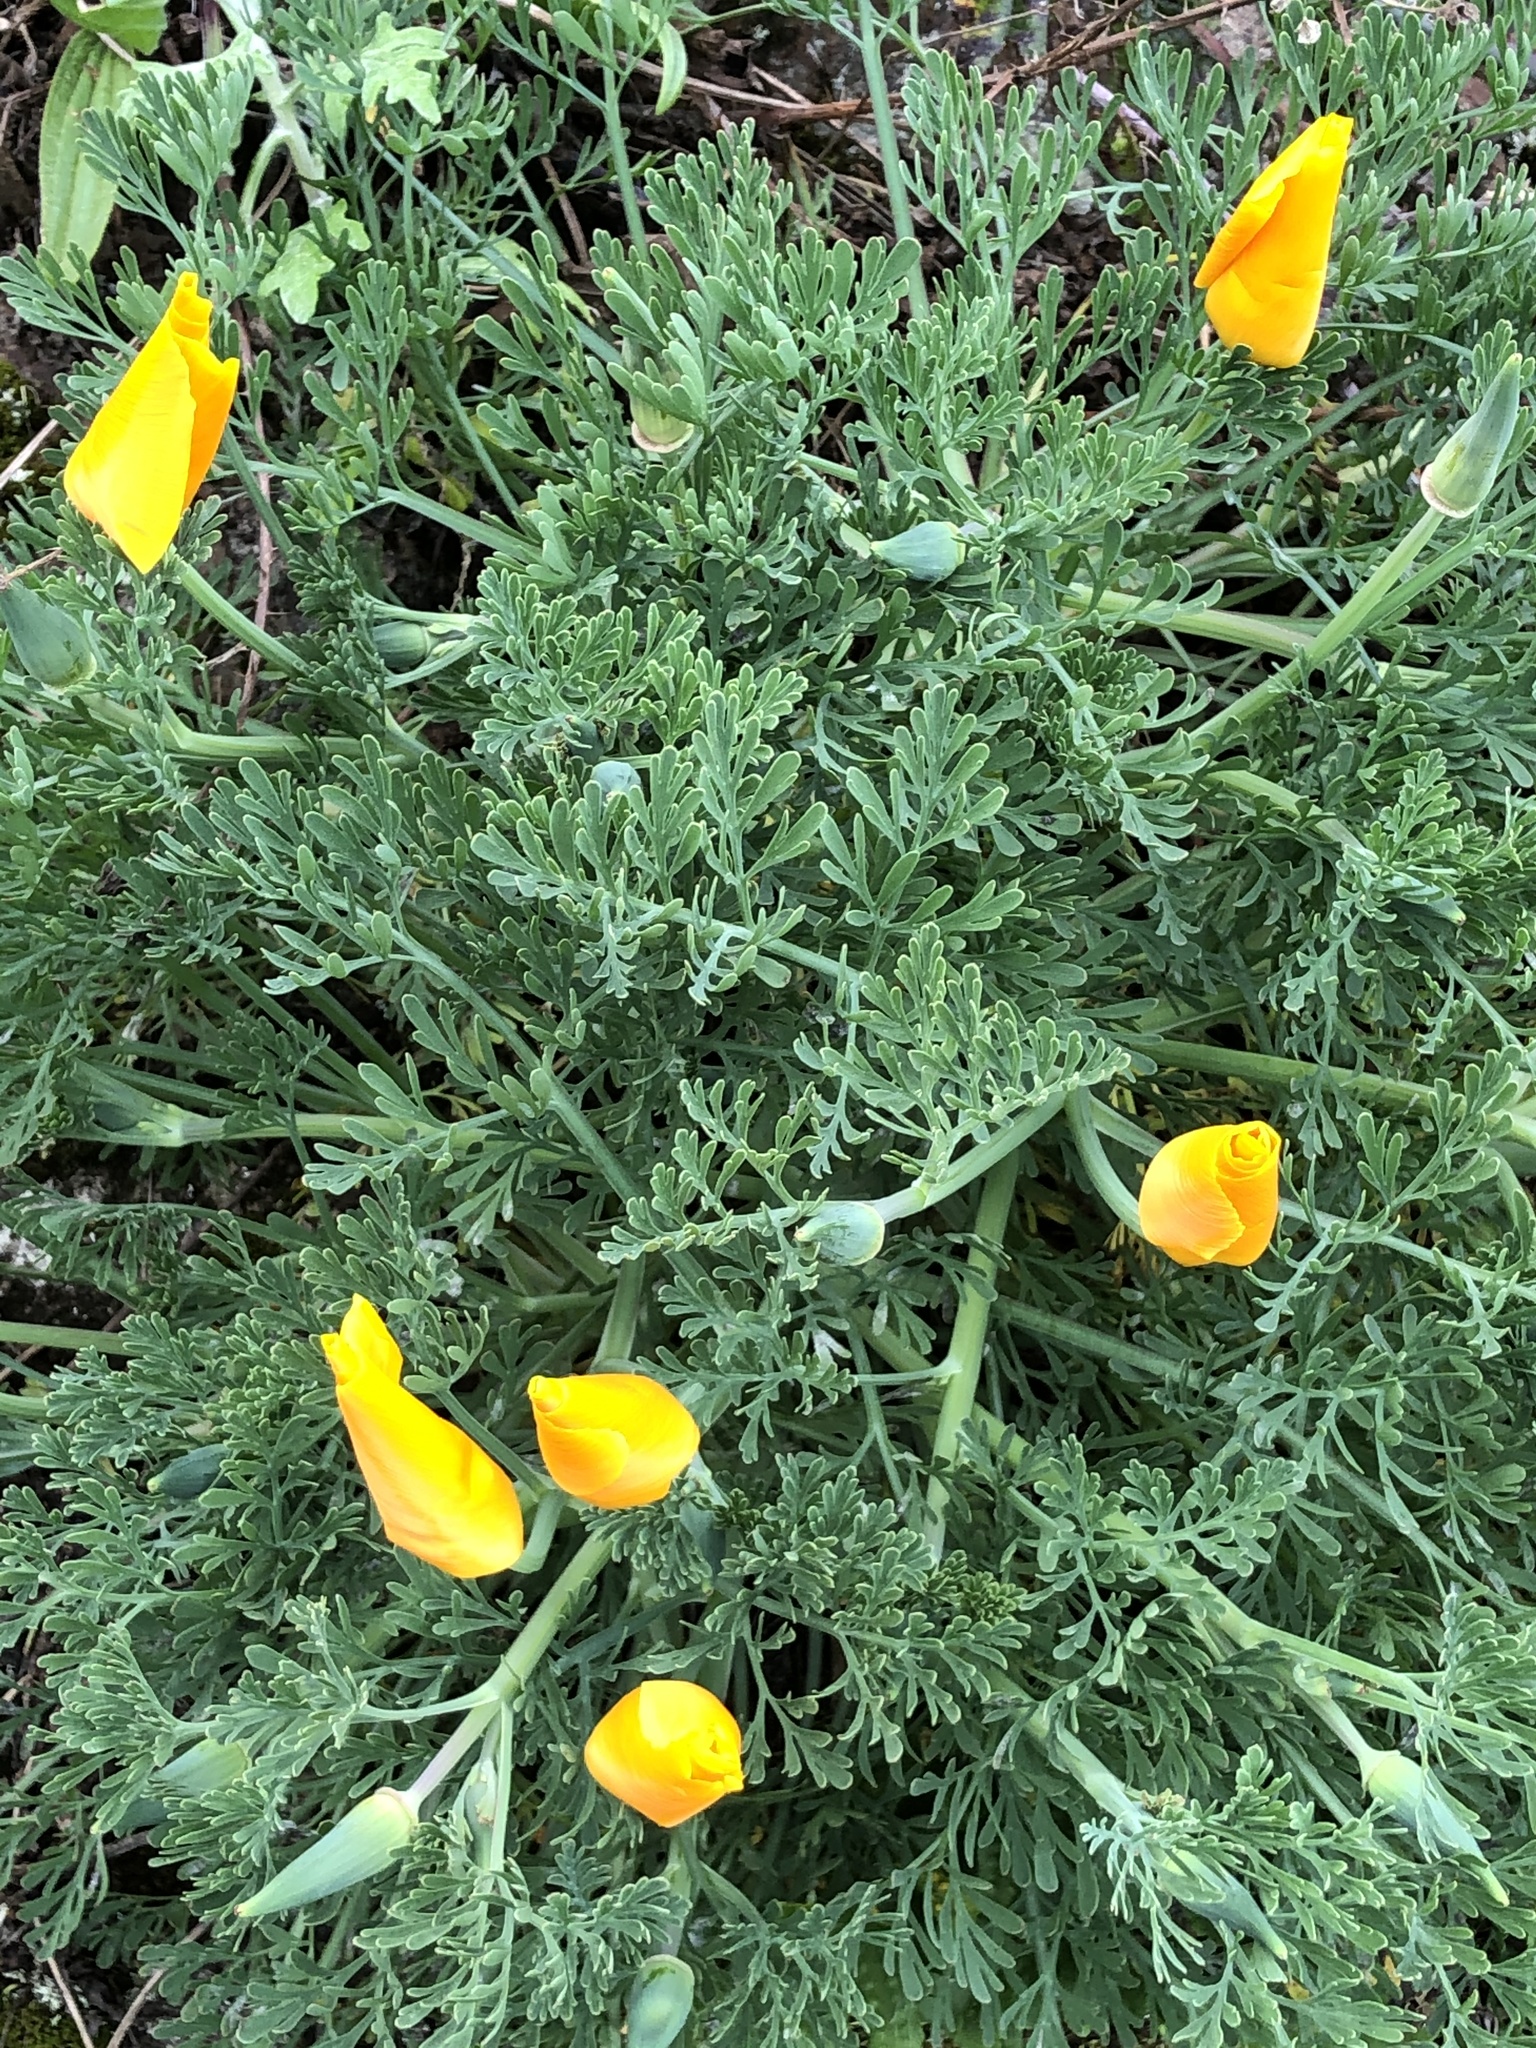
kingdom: Plantae
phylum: Tracheophyta
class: Magnoliopsida
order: Ranunculales
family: Papaveraceae
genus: Eschscholzia
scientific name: Eschscholzia californica
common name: California poppy
